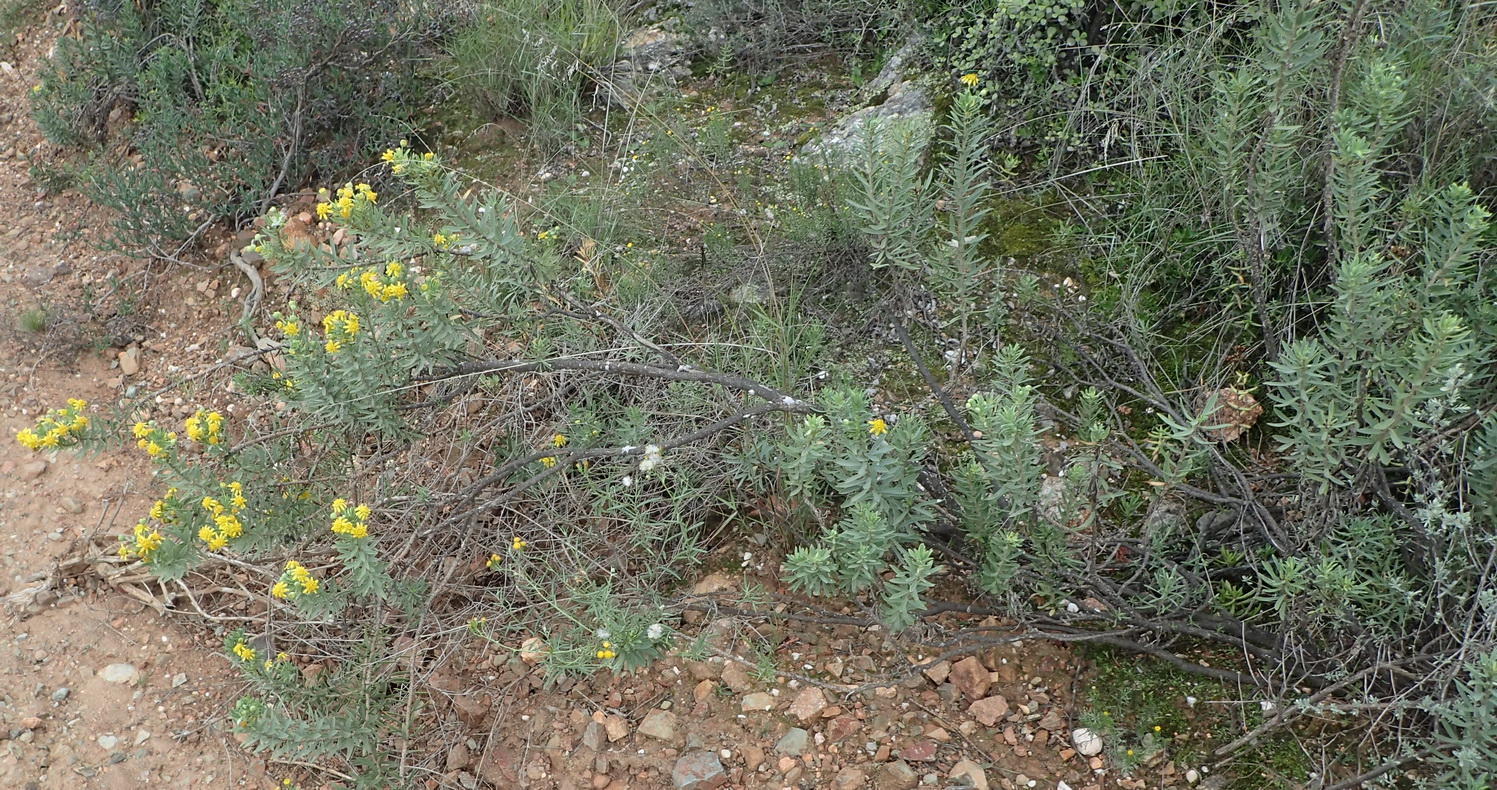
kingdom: Plantae
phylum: Tracheophyta
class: Magnoliopsida
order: Asterales
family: Asteraceae
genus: Euryops
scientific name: Euryops lateriflorus
